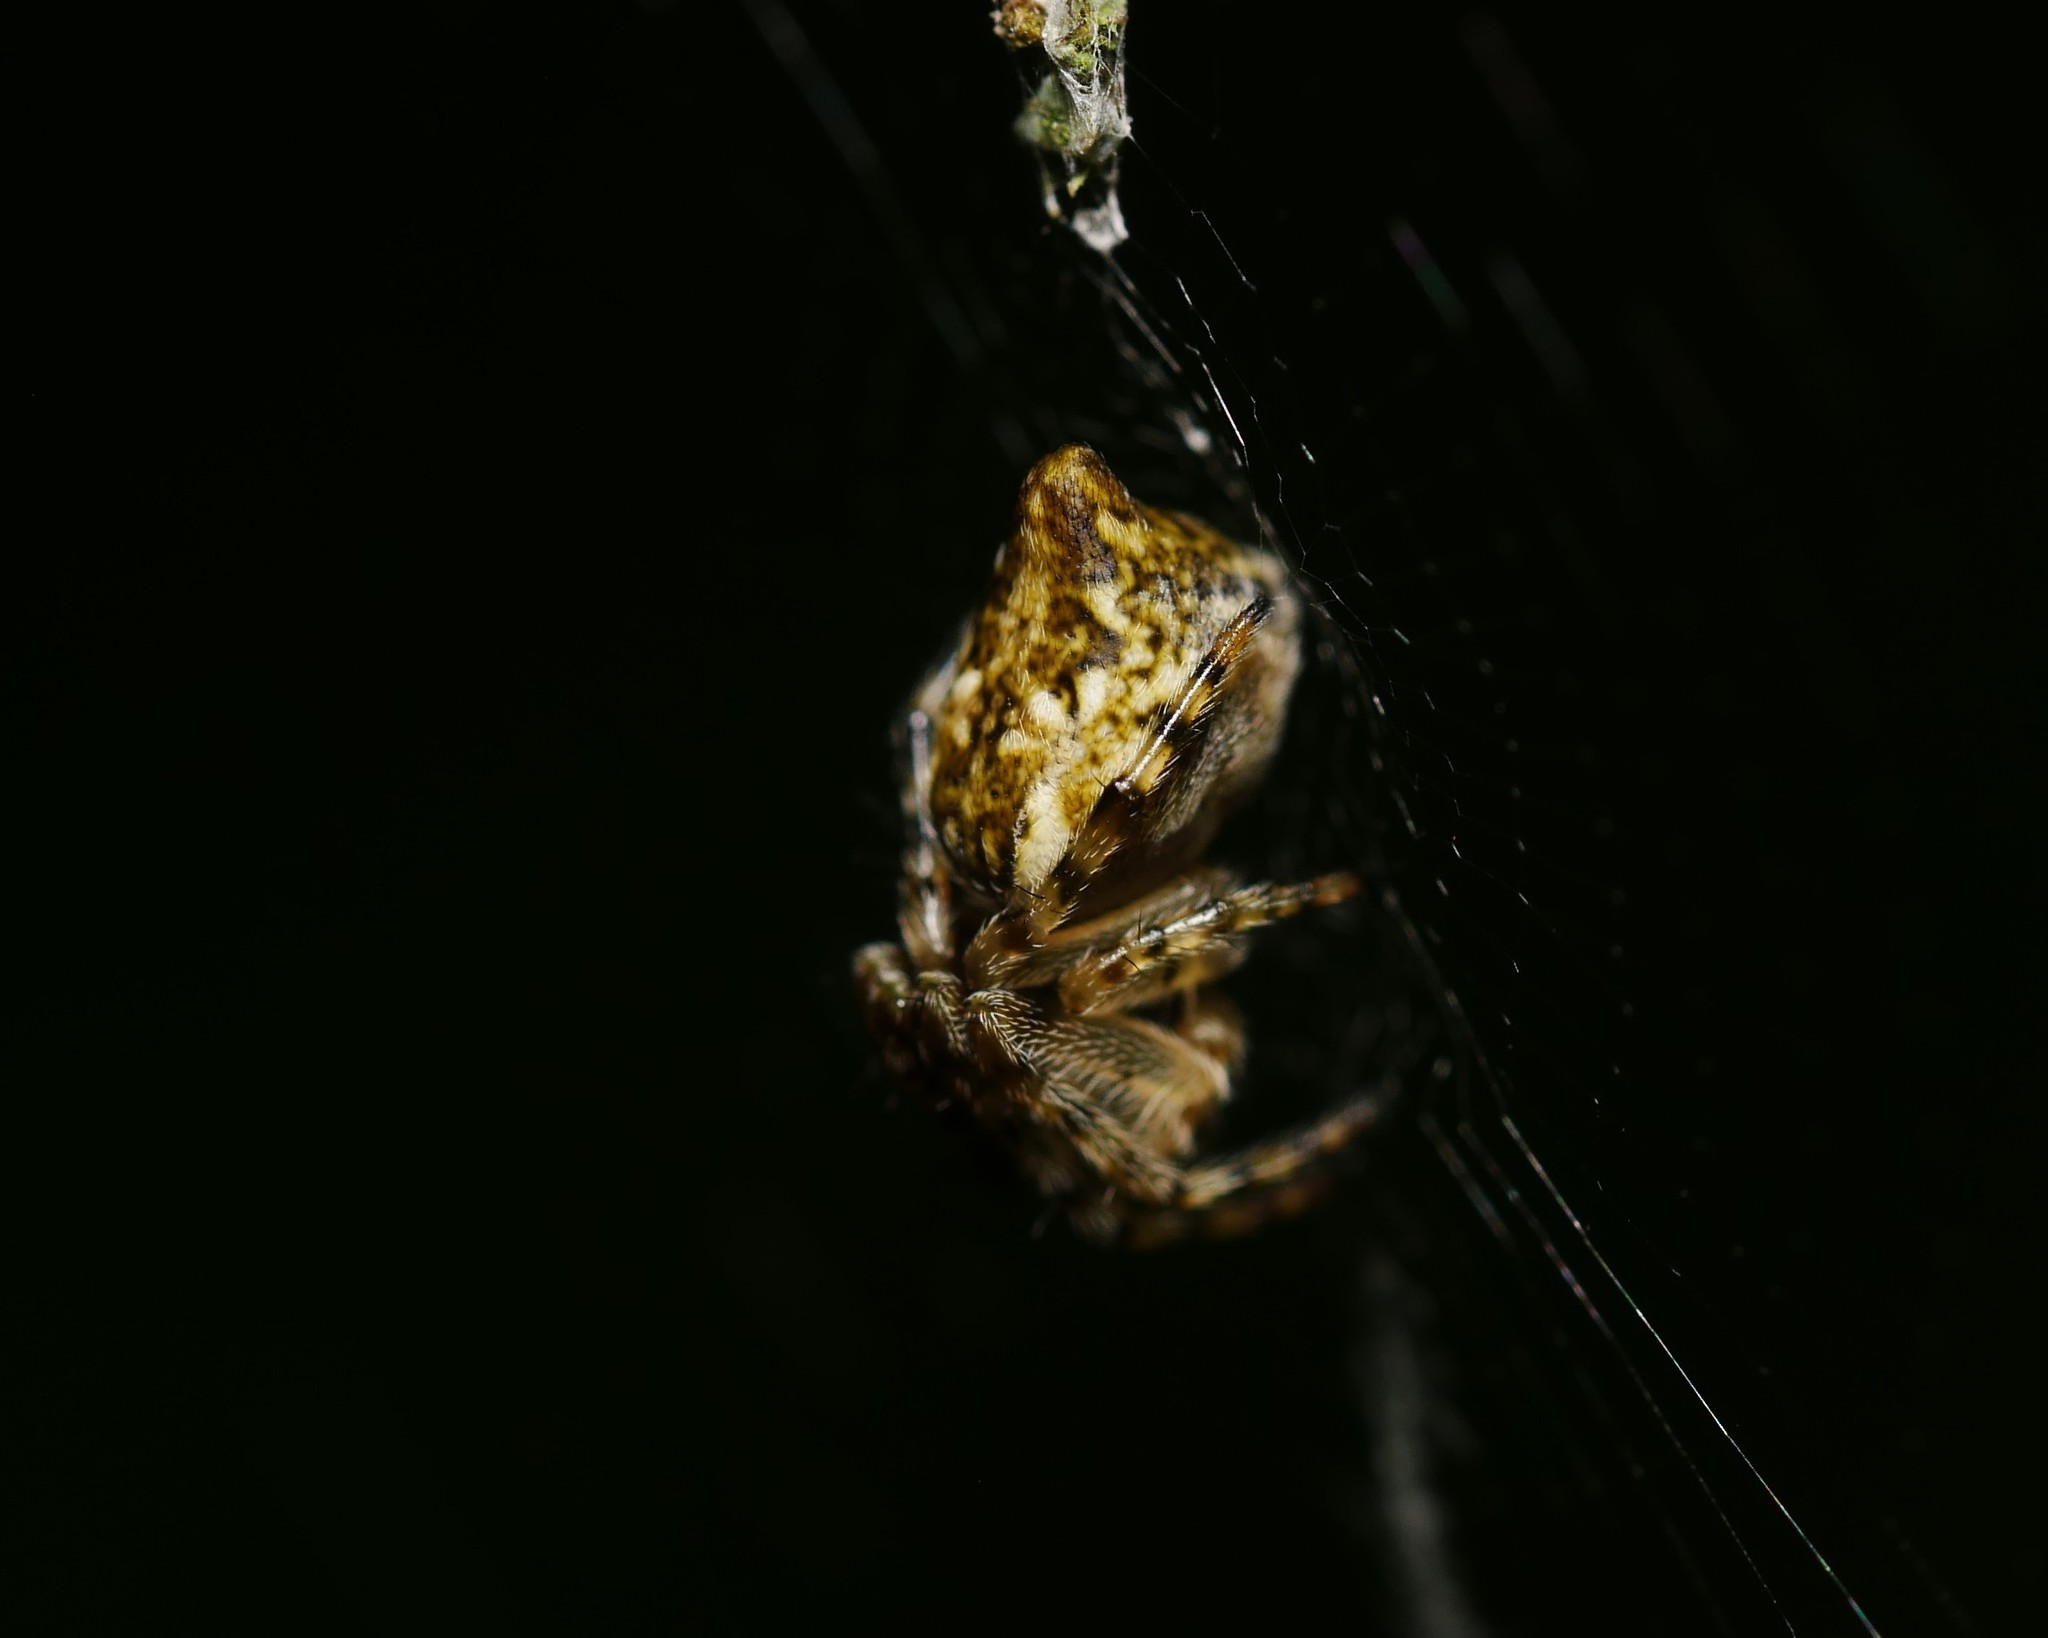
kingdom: Animalia
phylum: Arthropoda
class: Arachnida
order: Araneae
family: Araneidae
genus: Cyclosa
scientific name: Cyclosa conica
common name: Conical trashline orbweaver
